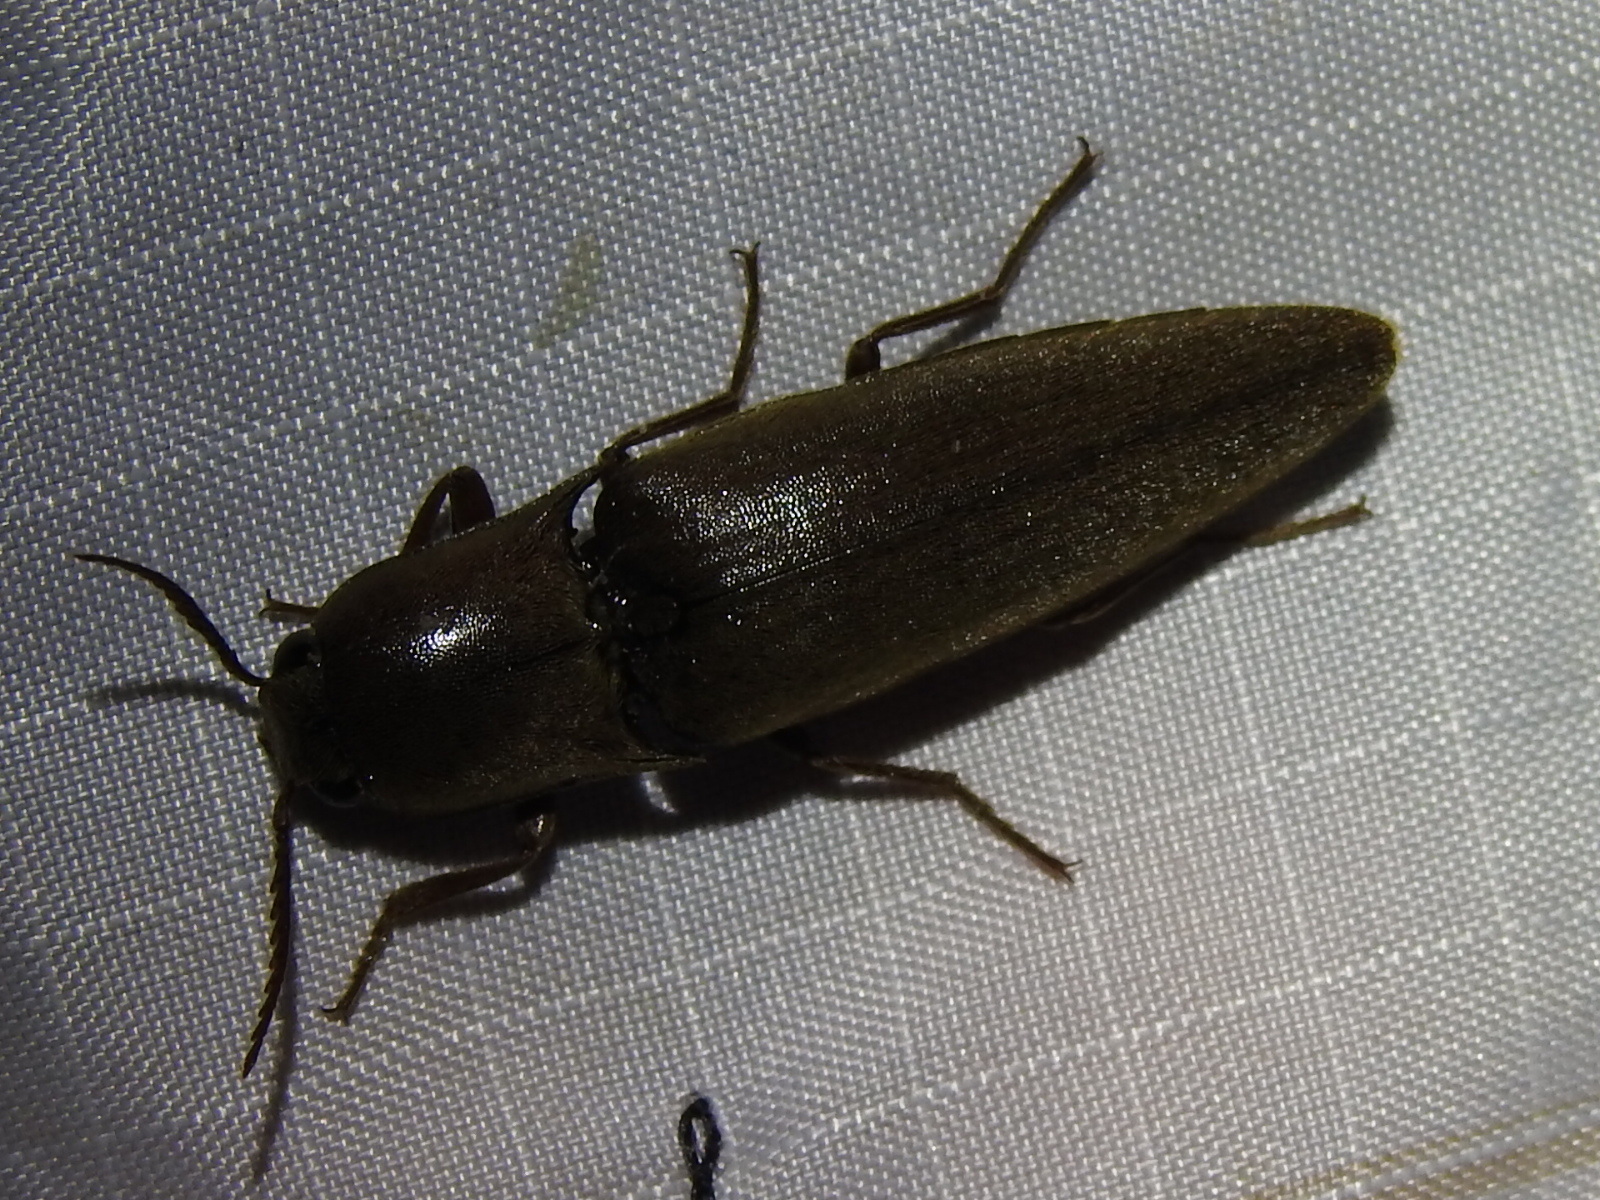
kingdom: Animalia
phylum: Arthropoda
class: Insecta
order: Coleoptera
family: Elateridae
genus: Orthostethus
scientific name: Orthostethus infuscatus
